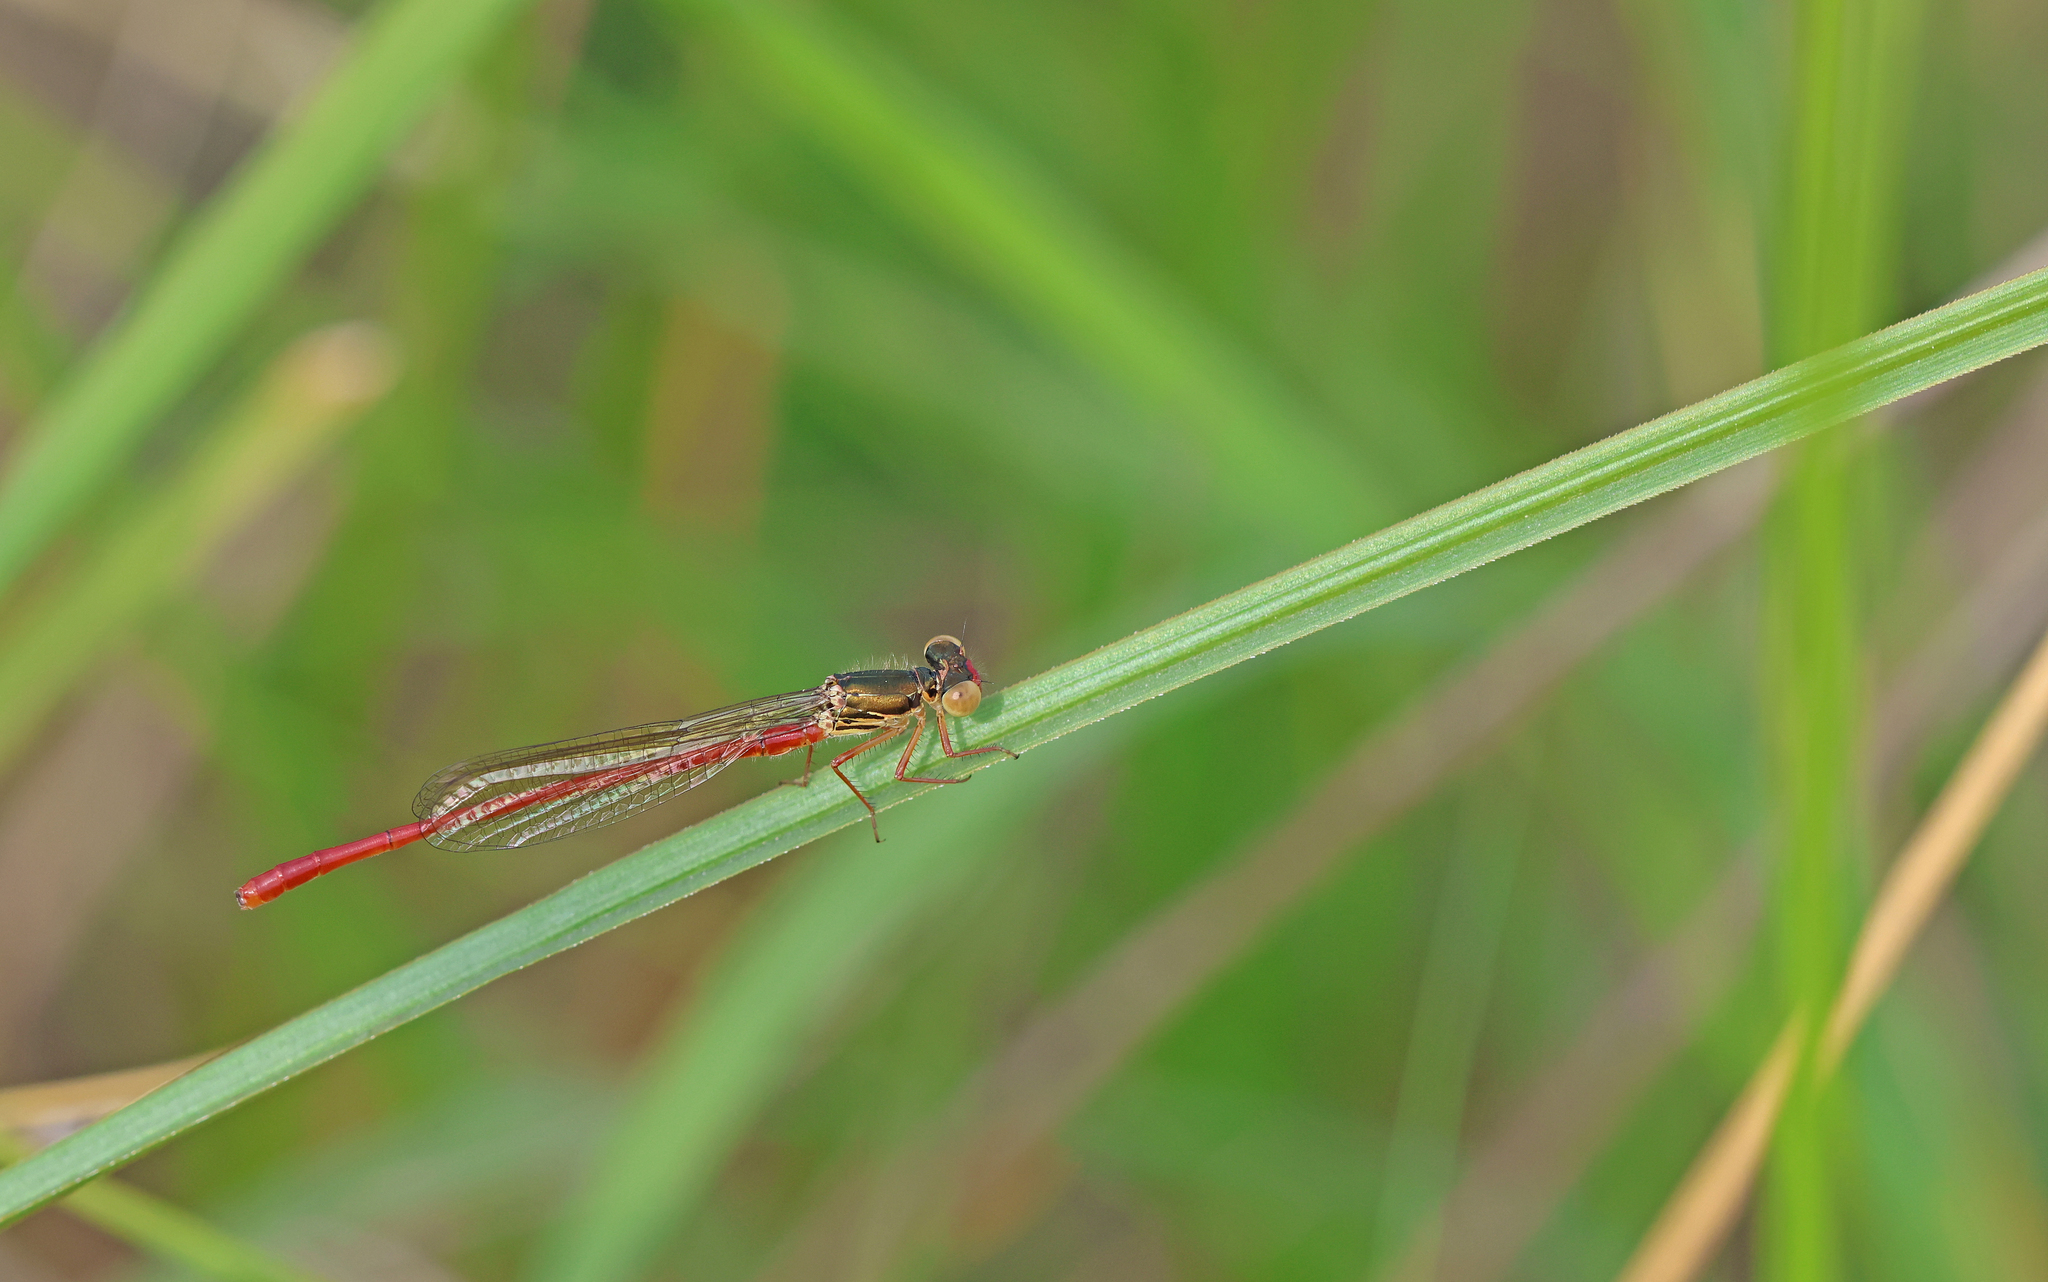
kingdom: Animalia
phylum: Arthropoda
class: Insecta
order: Odonata
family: Coenagrionidae
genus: Ceriagrion
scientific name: Ceriagrion tenellum
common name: Small red damselfly
